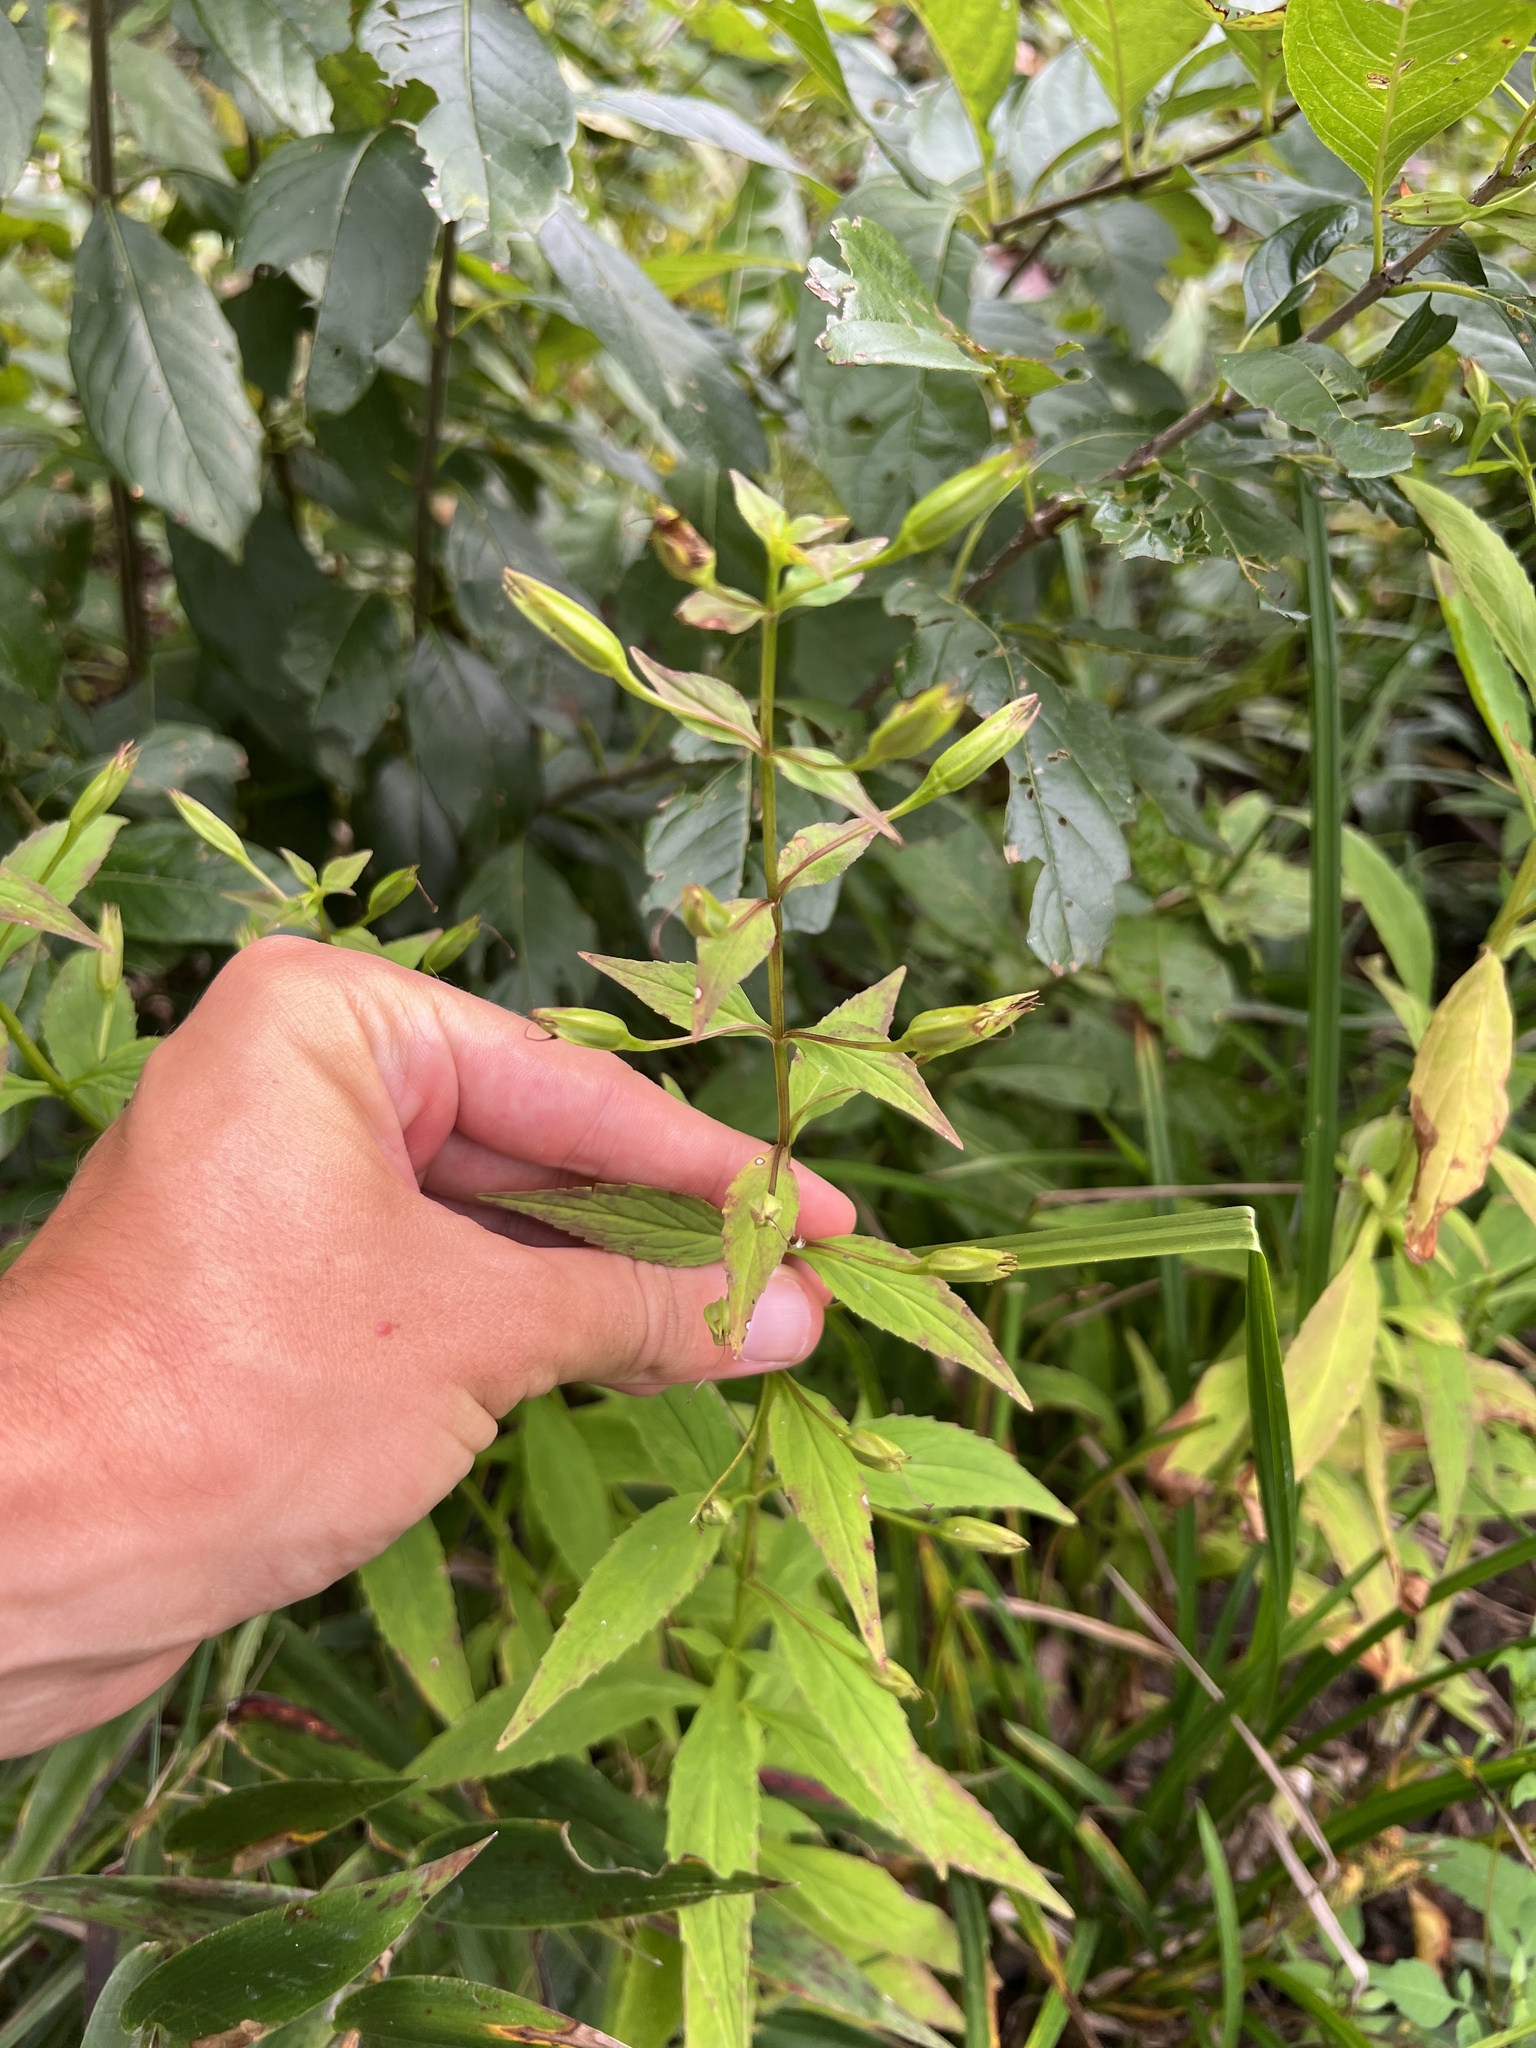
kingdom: Plantae
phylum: Tracheophyta
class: Magnoliopsida
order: Lamiales
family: Phrymaceae
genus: Mimulus
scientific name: Mimulus ringens
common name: Allegheny monkeyflower
